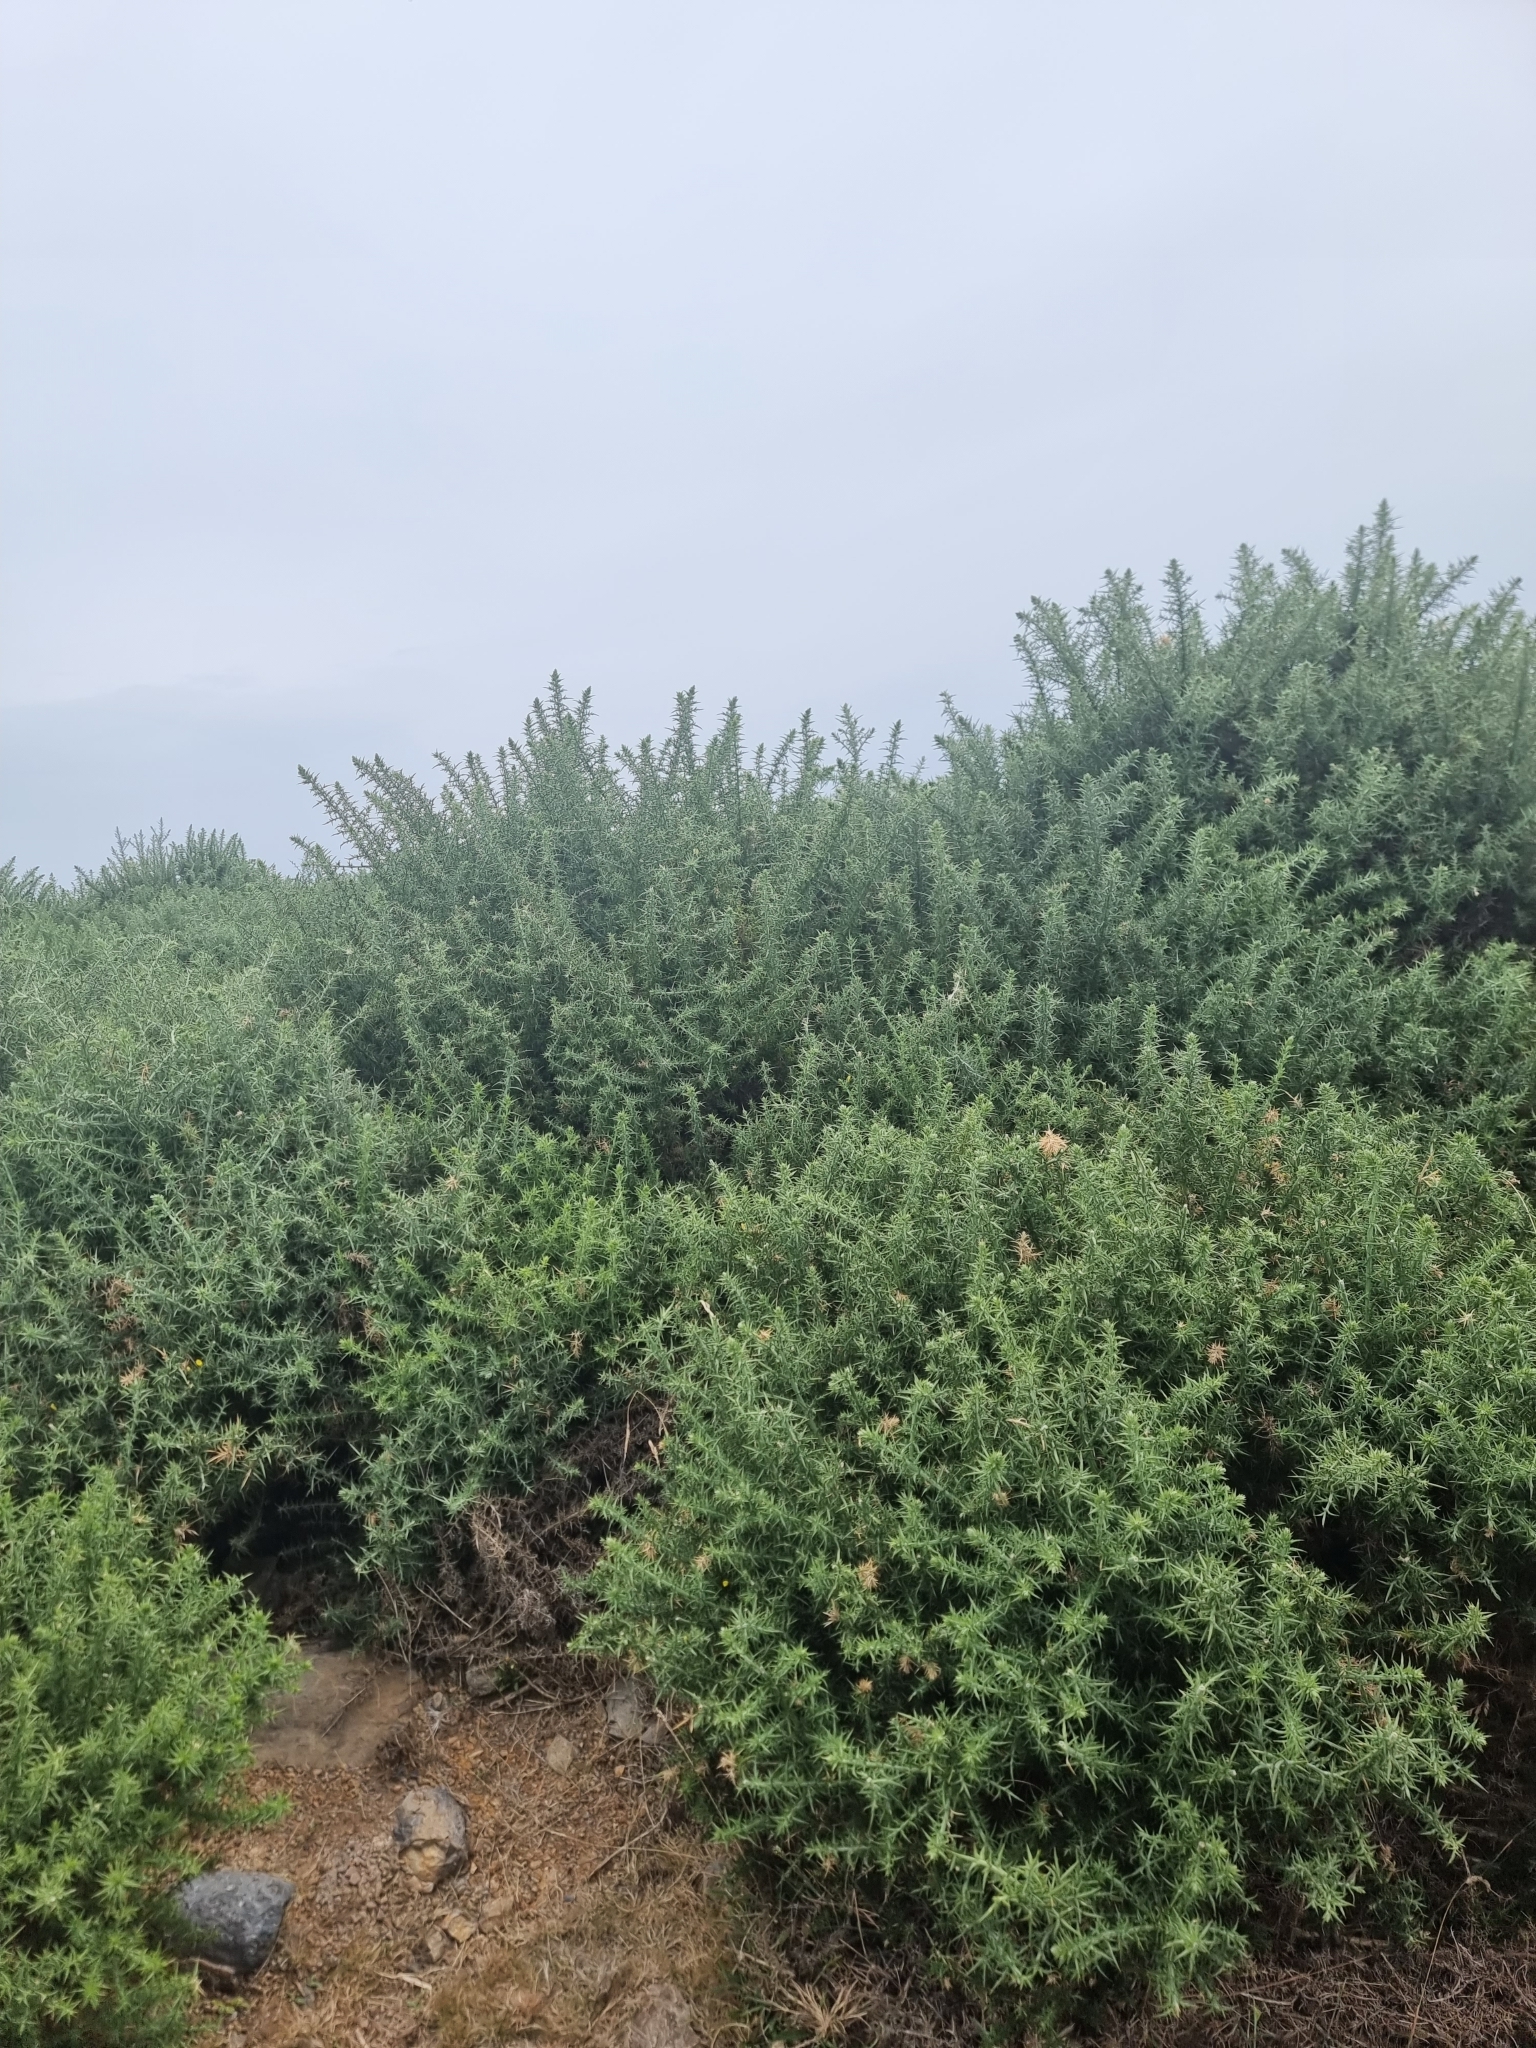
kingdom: Plantae
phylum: Tracheophyta
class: Magnoliopsida
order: Fabales
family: Fabaceae
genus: Ulex
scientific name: Ulex europaeus
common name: Common gorse
